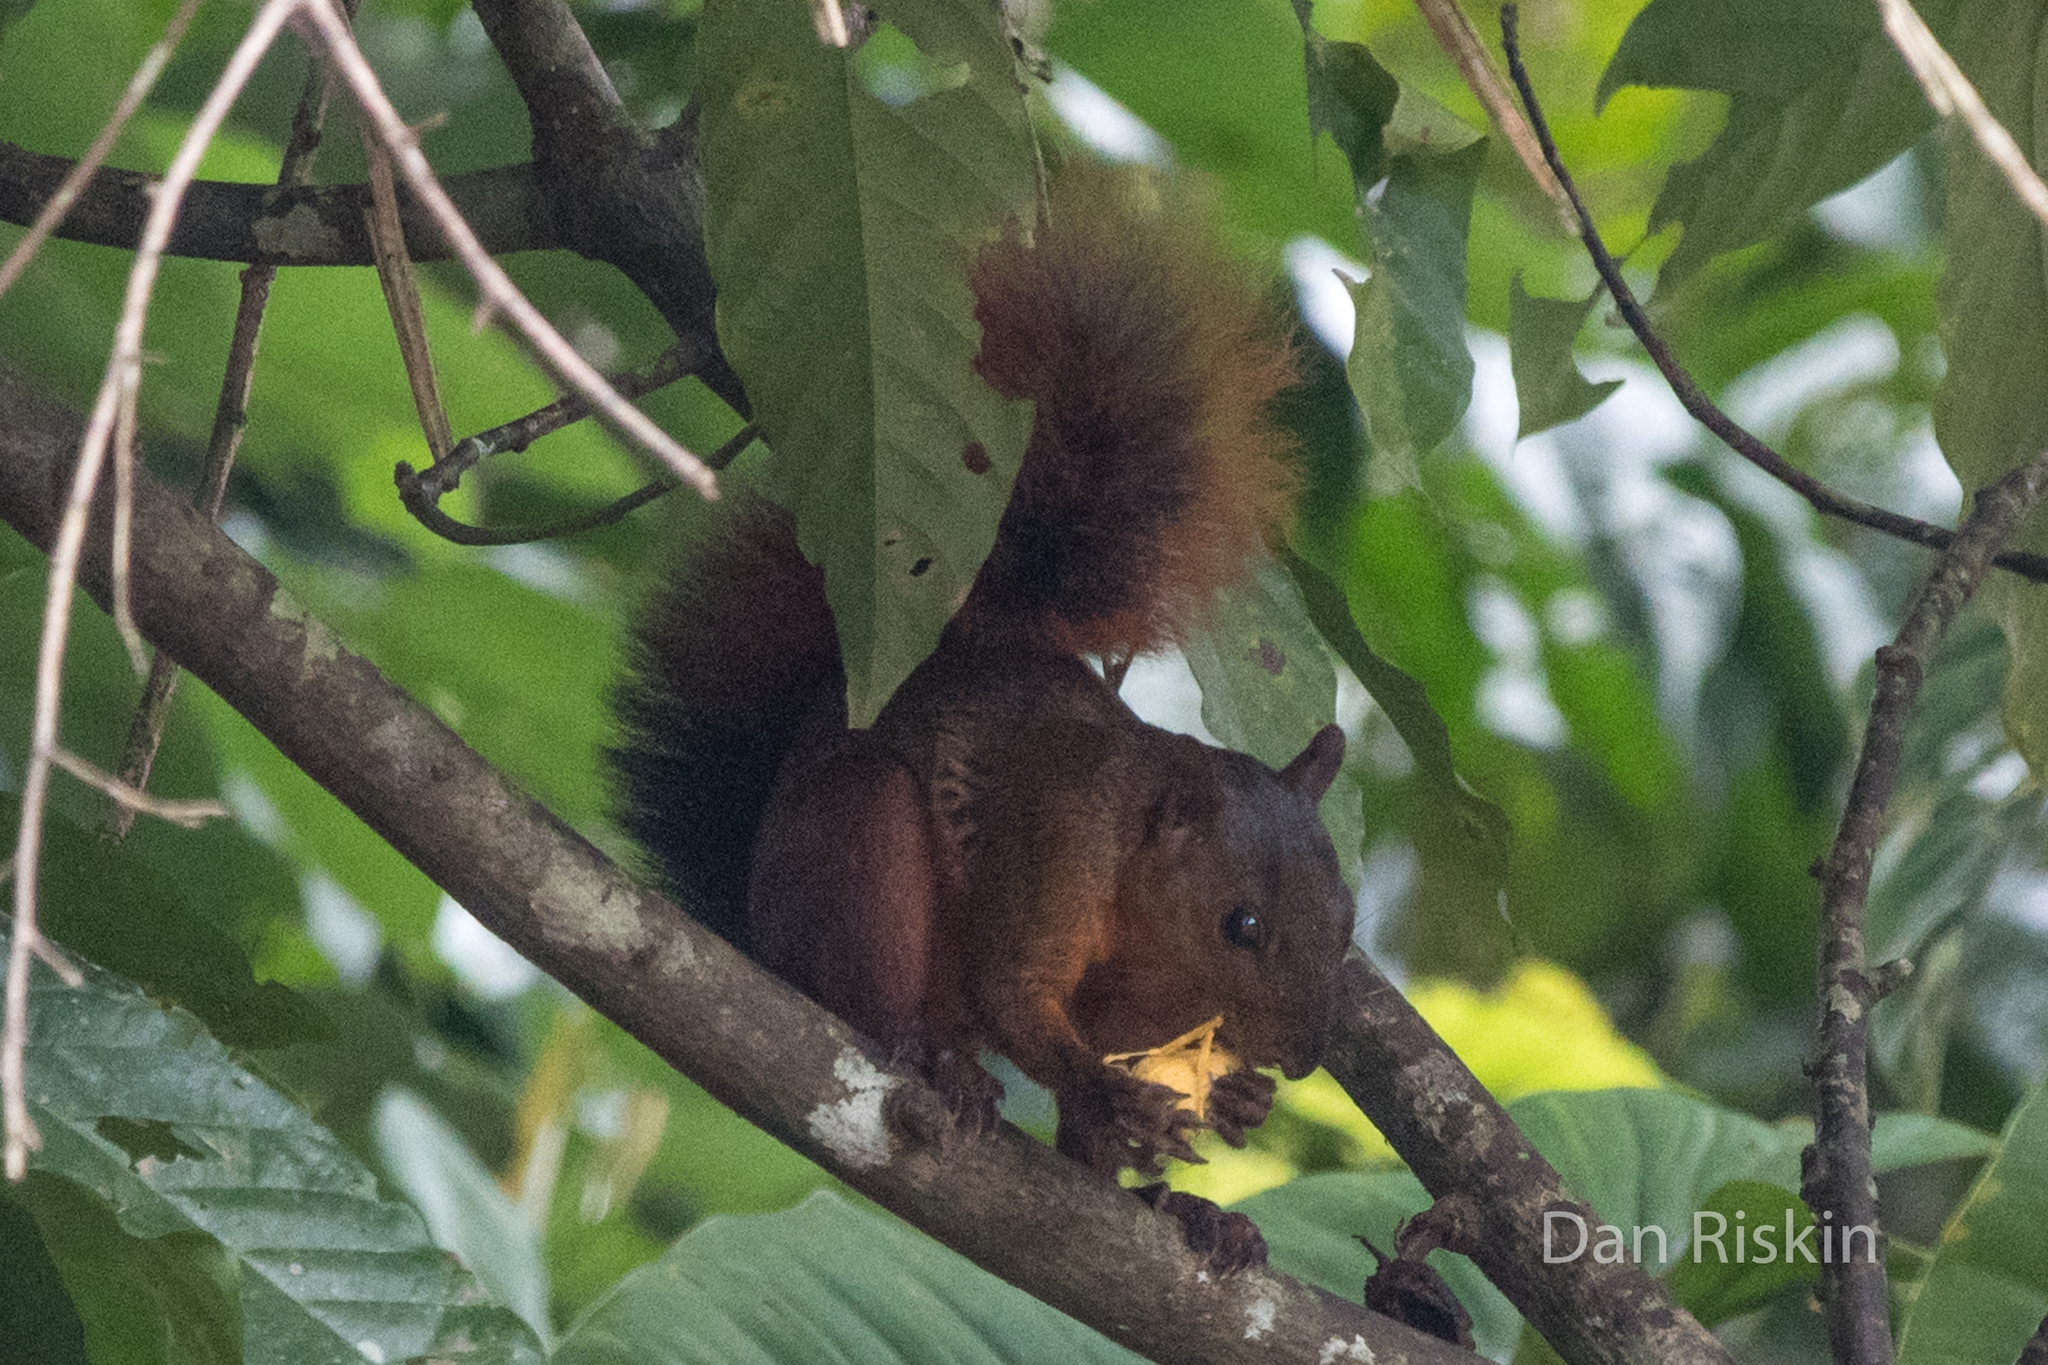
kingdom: Animalia
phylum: Chordata
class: Mammalia
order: Rodentia
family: Sciuridae
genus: Sciurus
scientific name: Sciurus spadiceus
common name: Southern amazon red squirrel
